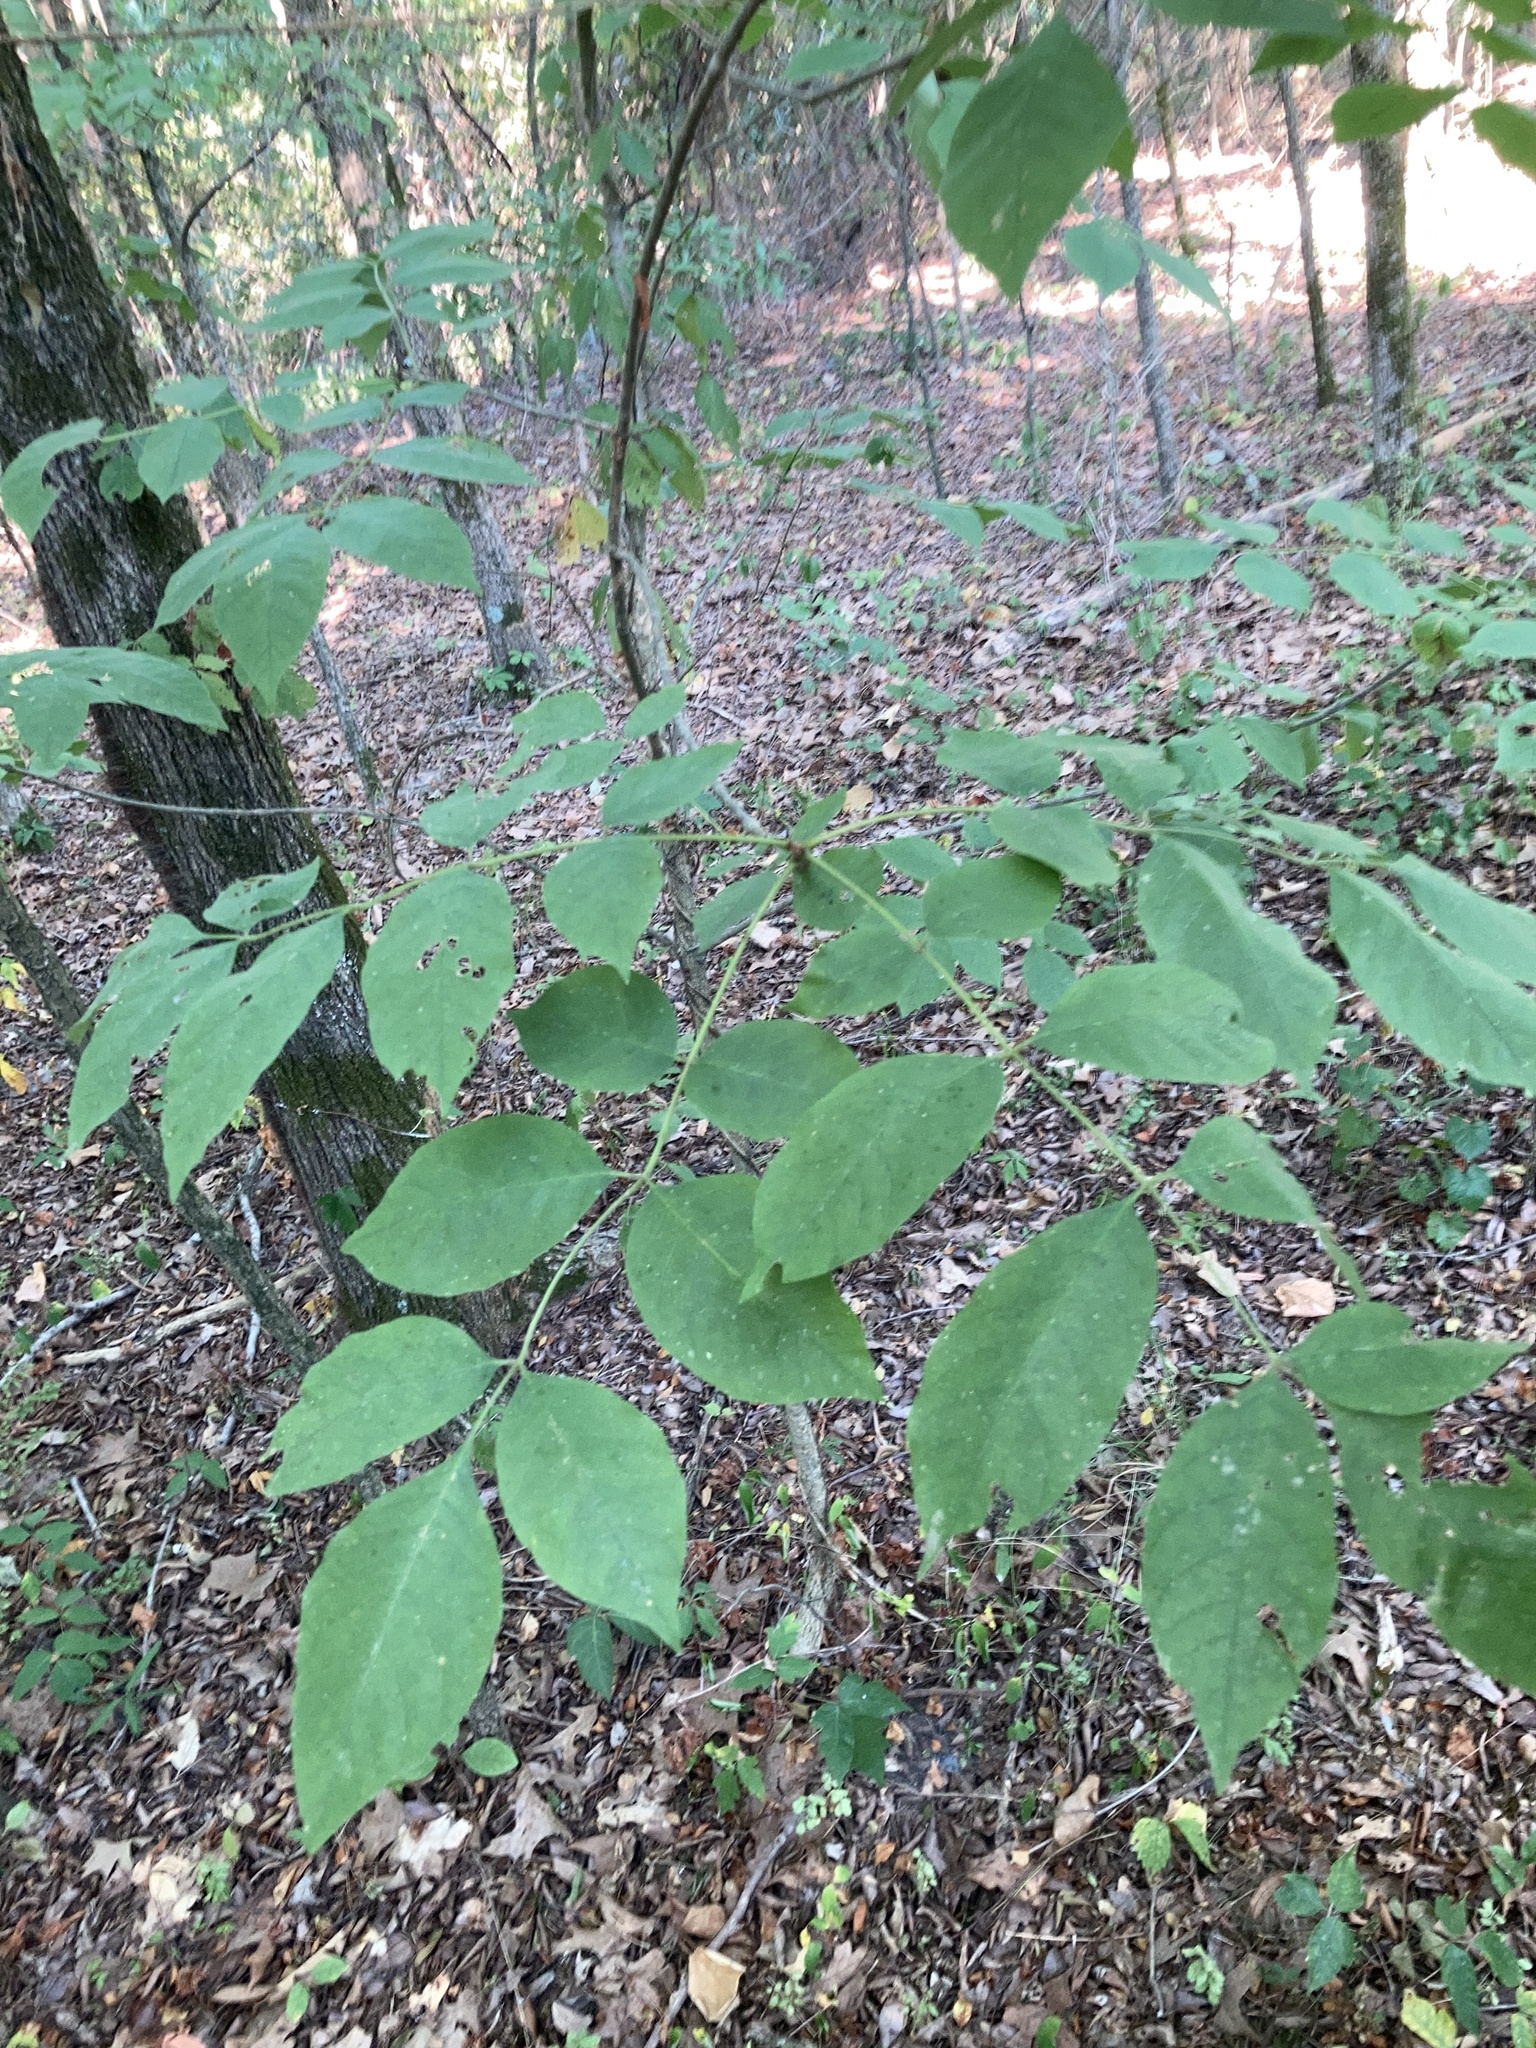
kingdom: Plantae
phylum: Tracheophyta
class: Magnoliopsida
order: Apiales
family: Araliaceae
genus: Aralia
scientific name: Aralia spinosa
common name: Hercules'-club
